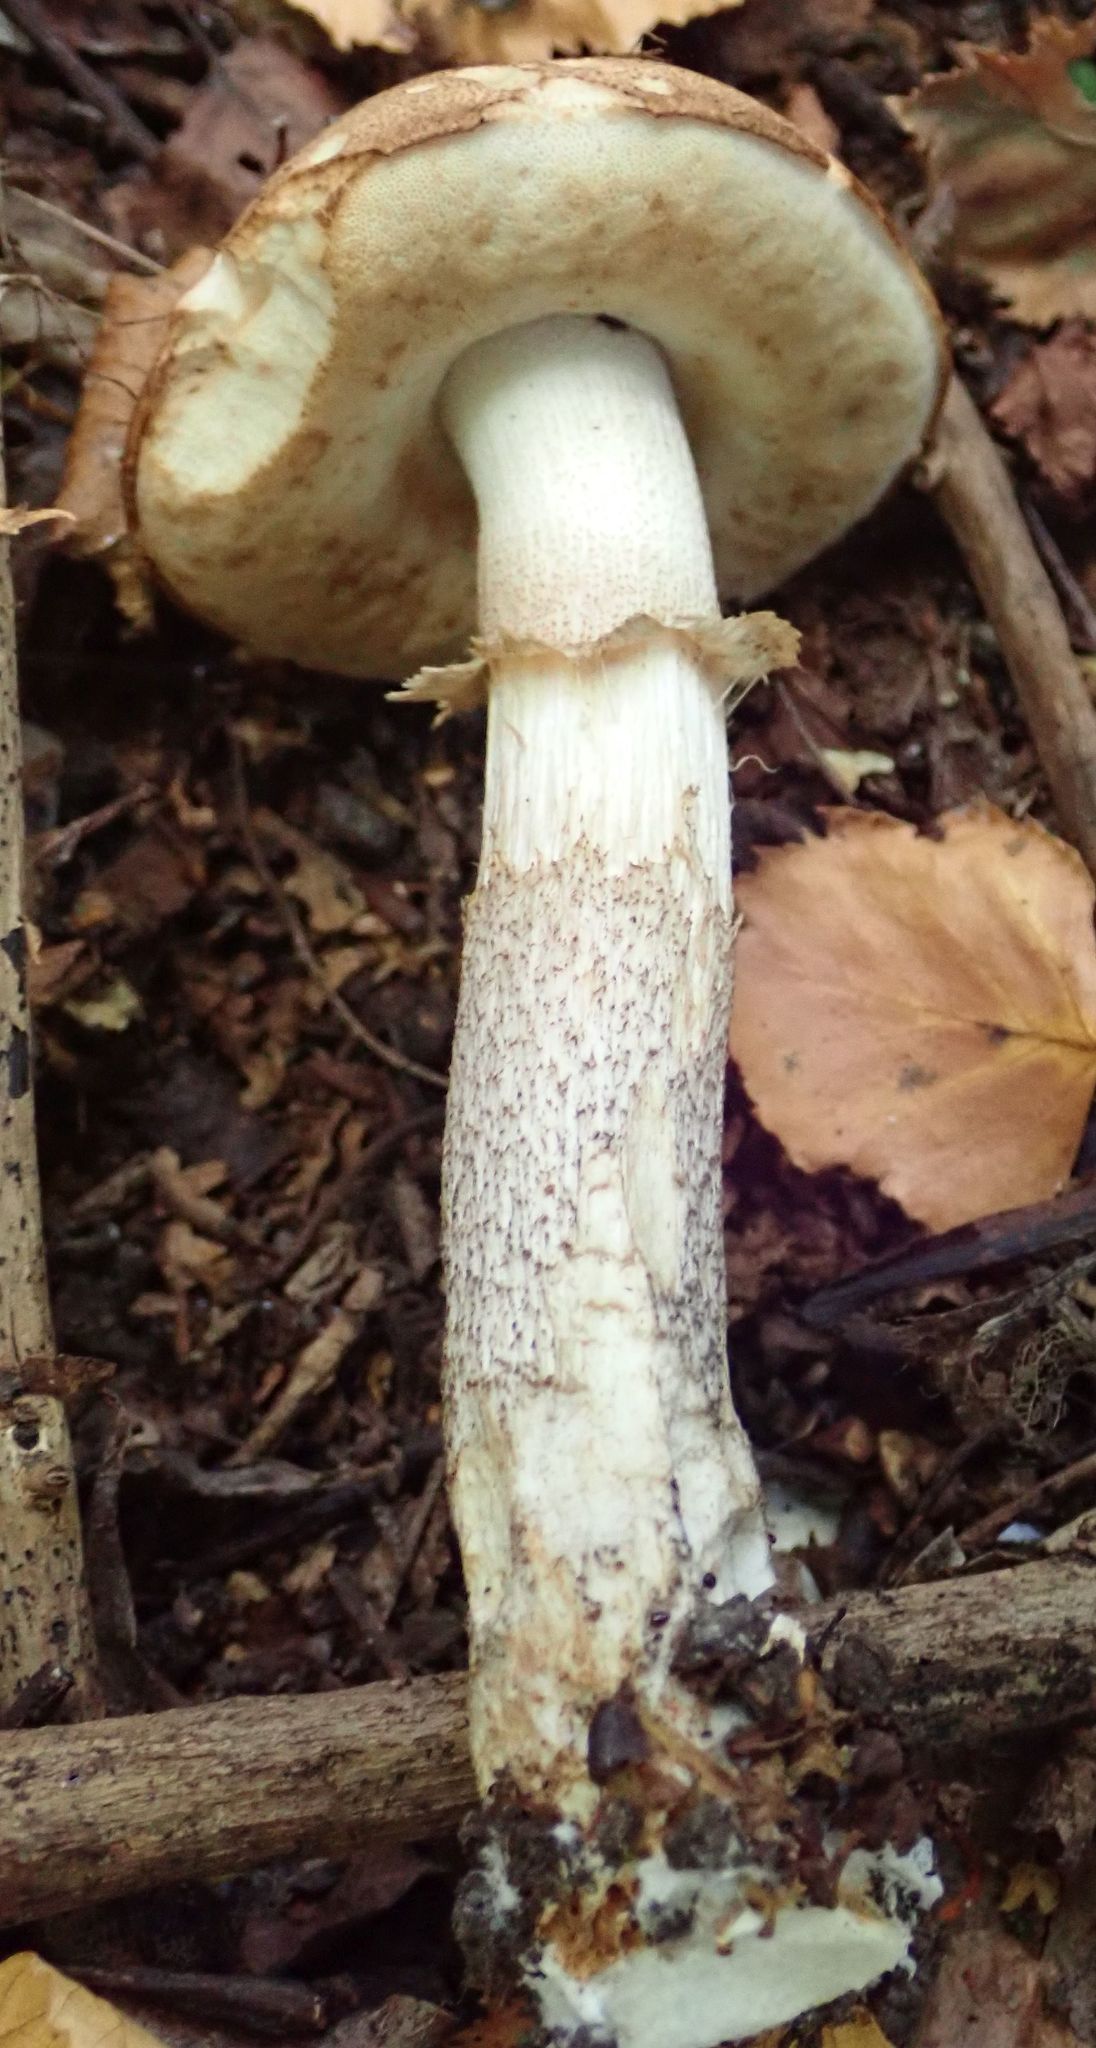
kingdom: Fungi
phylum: Basidiomycota
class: Agaricomycetes
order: Boletales
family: Boletaceae
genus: Leccinum
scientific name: Leccinum scabrum
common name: Blushing bolete
